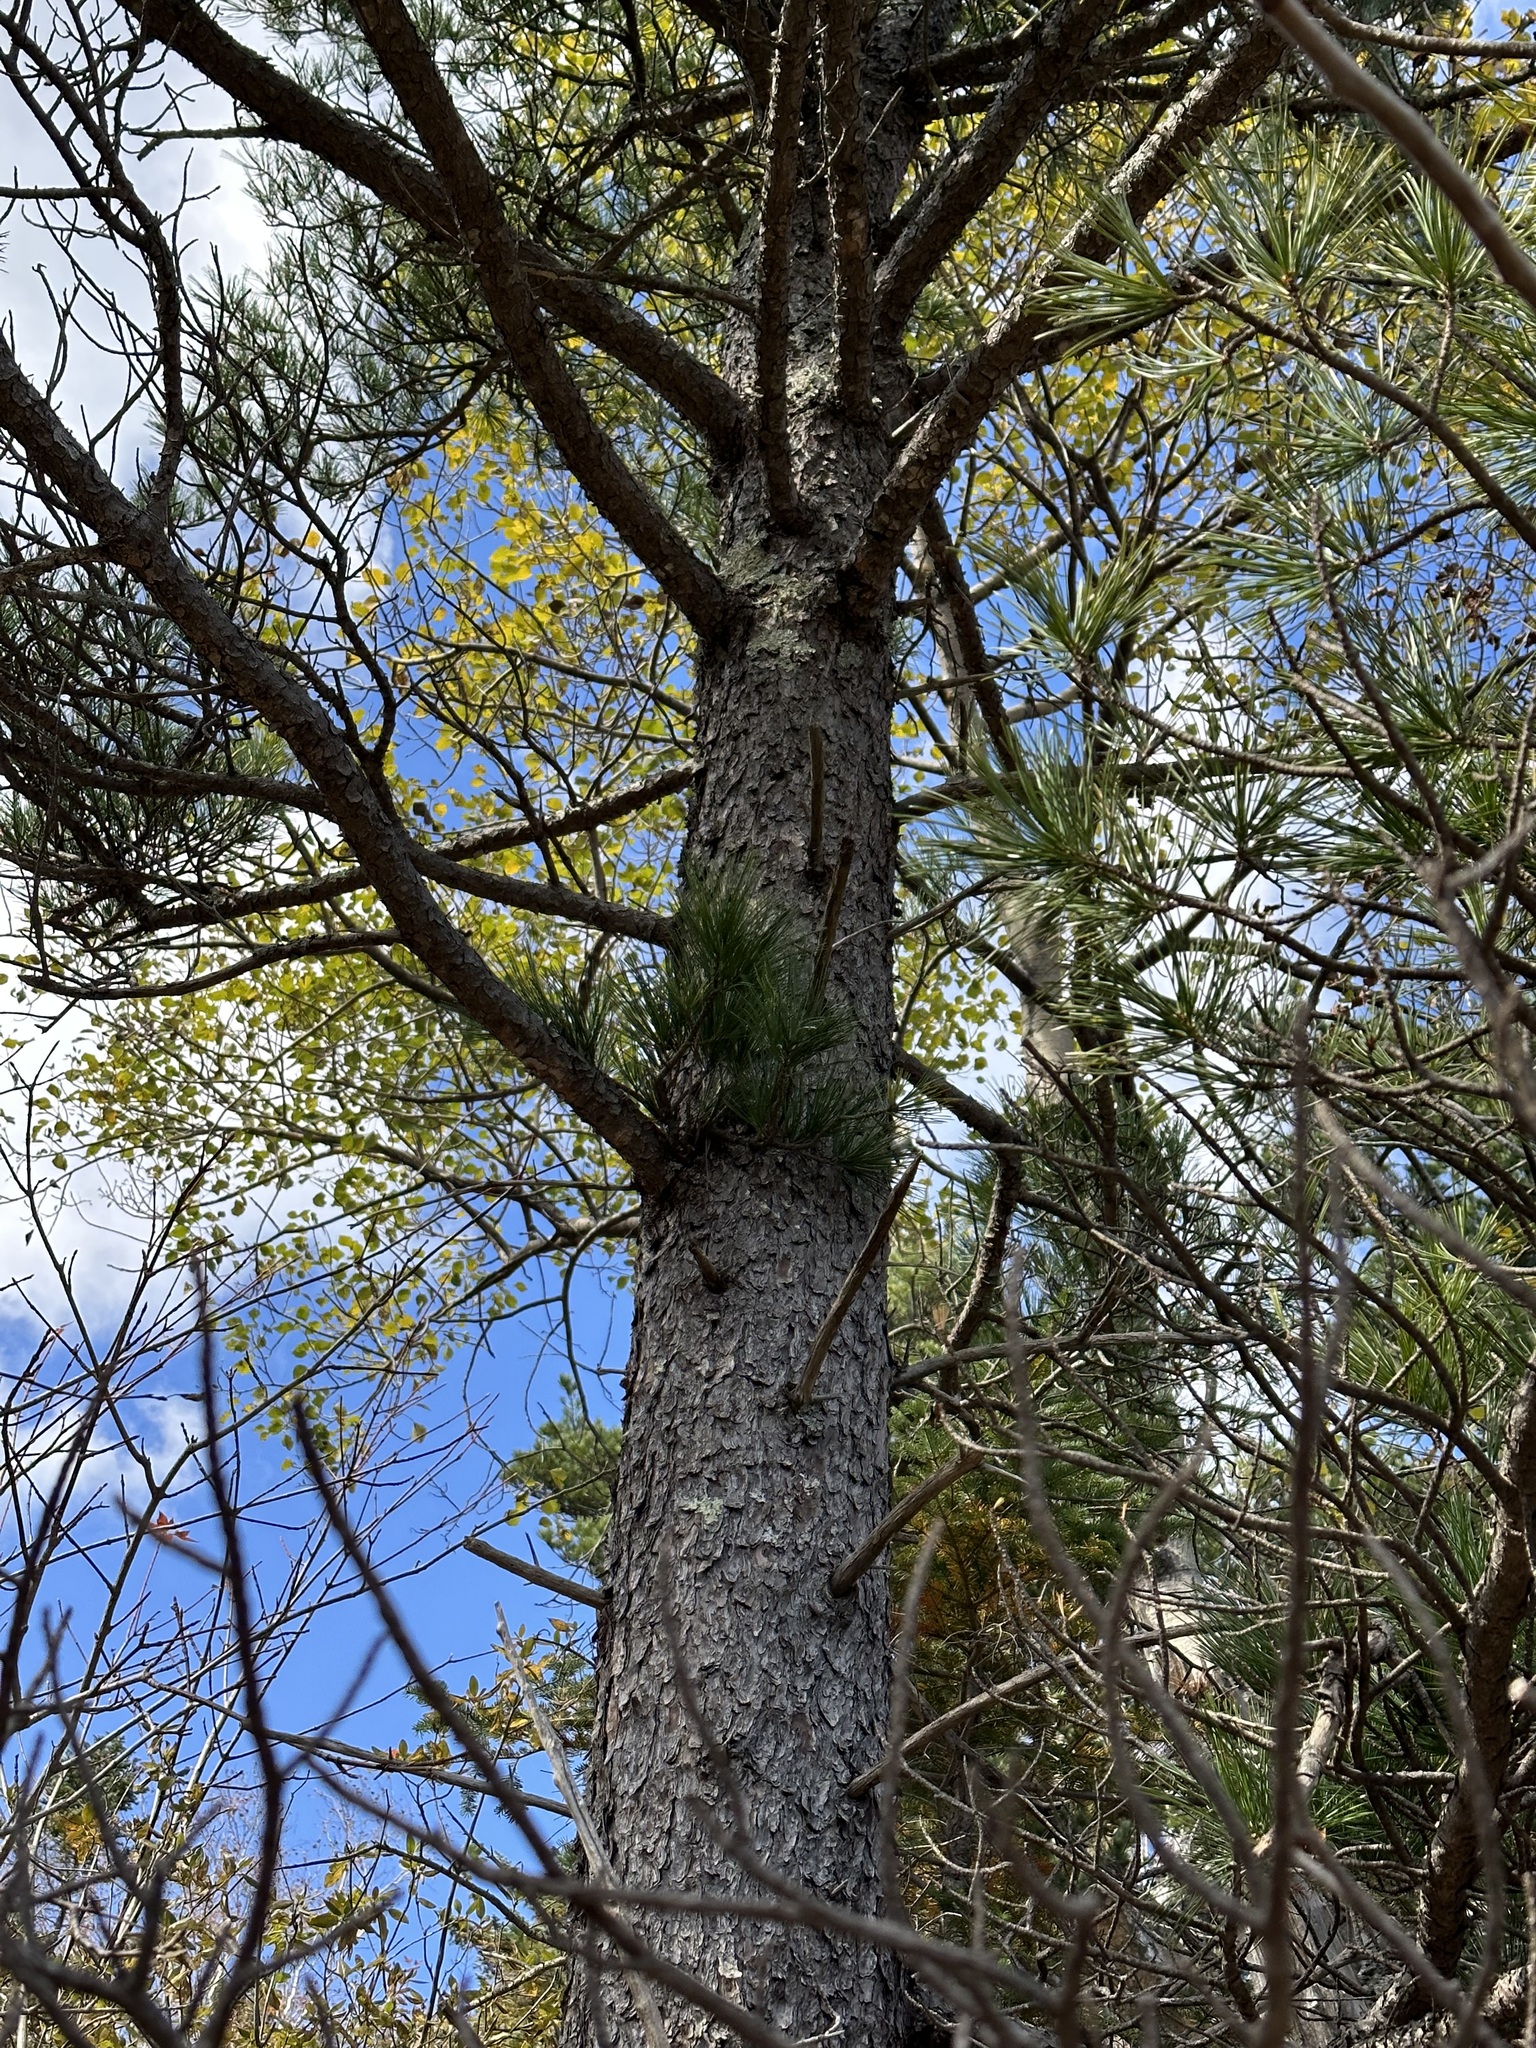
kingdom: Plantae
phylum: Tracheophyta
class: Pinopsida
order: Pinales
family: Pinaceae
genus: Pinus
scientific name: Pinus koraiensis
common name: Korean pine
